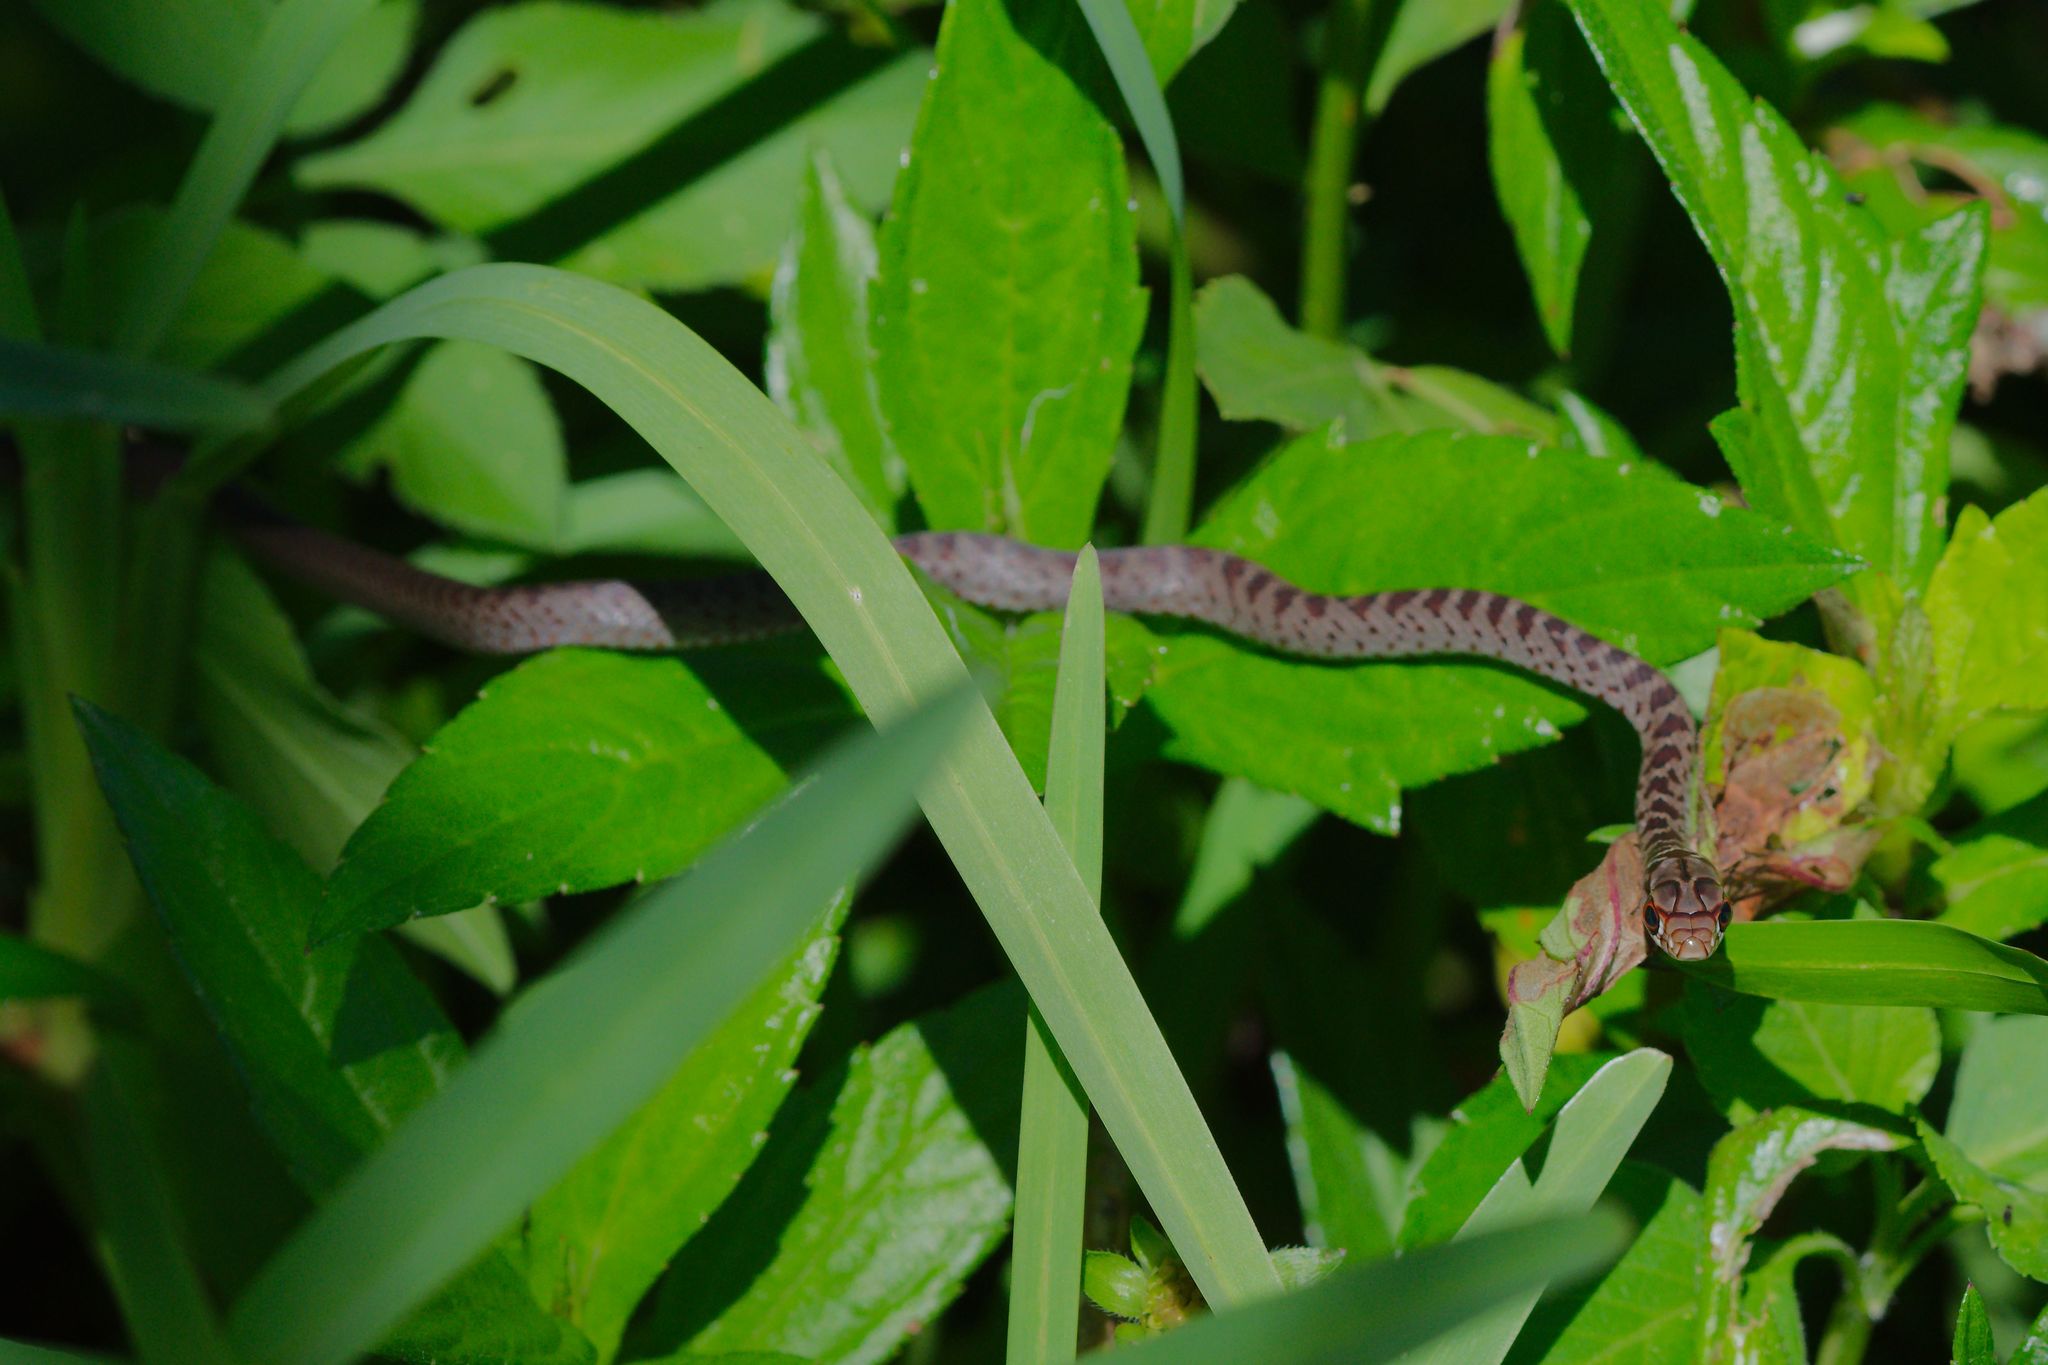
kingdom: Animalia
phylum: Chordata
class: Squamata
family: Colubridae
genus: Coluber
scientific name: Coluber constrictor
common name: Eastern racer
